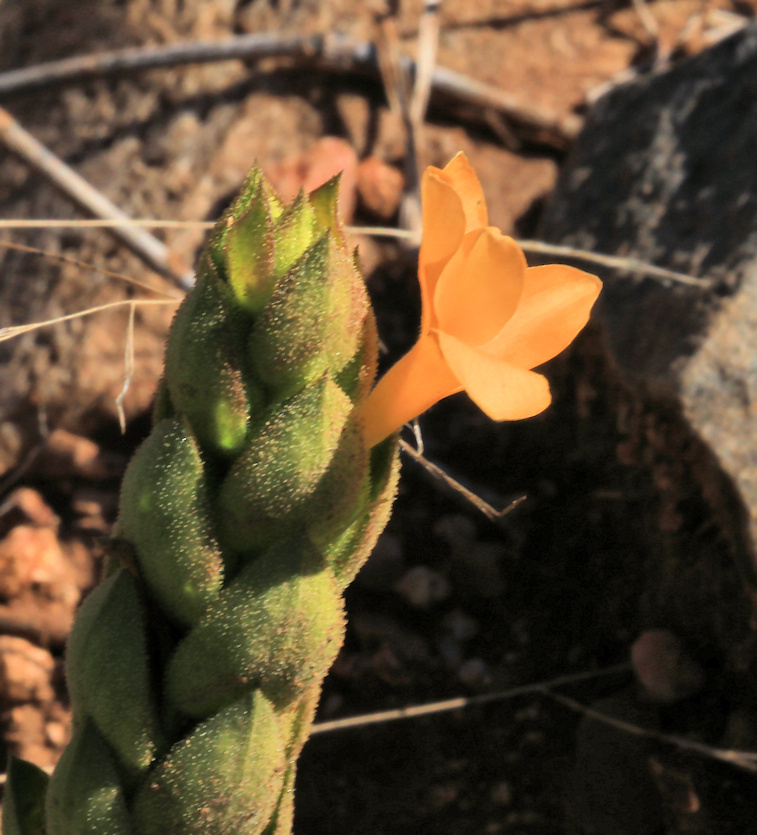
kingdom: Plantae
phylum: Tracheophyta
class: Magnoliopsida
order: Lamiales
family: Acanthaceae
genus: Barleria
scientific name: Barleria crossandriformis
